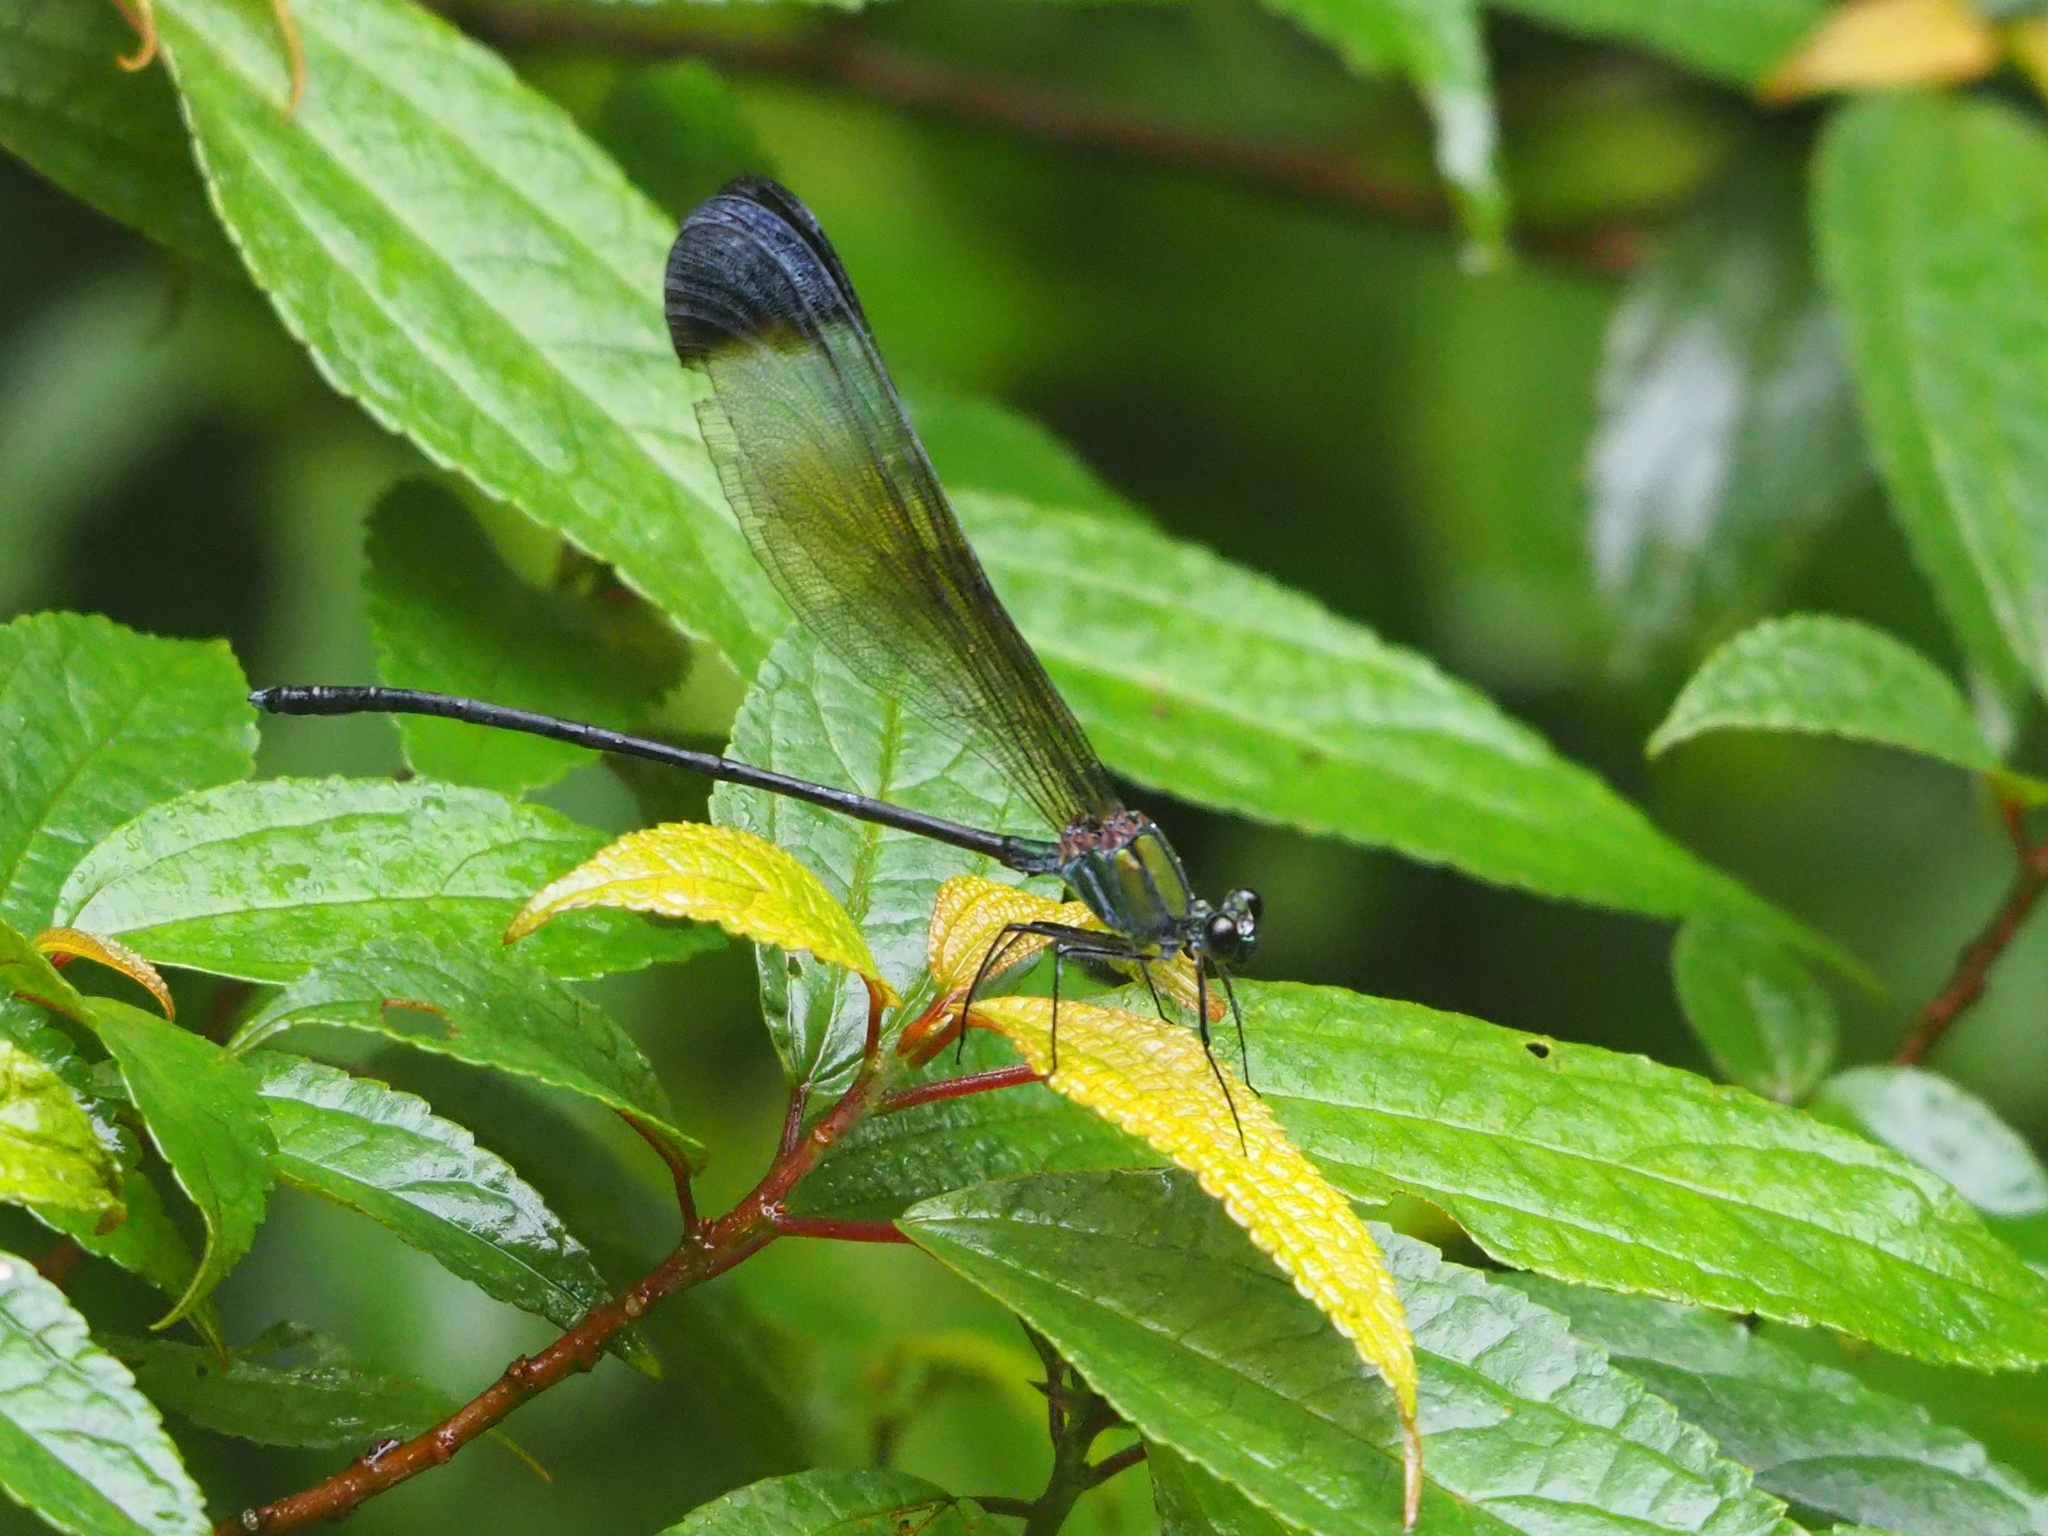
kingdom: Animalia
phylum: Arthropoda
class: Insecta
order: Odonata
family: Calopterygidae
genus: Psolodesmus
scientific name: Psolodesmus mandarinus
